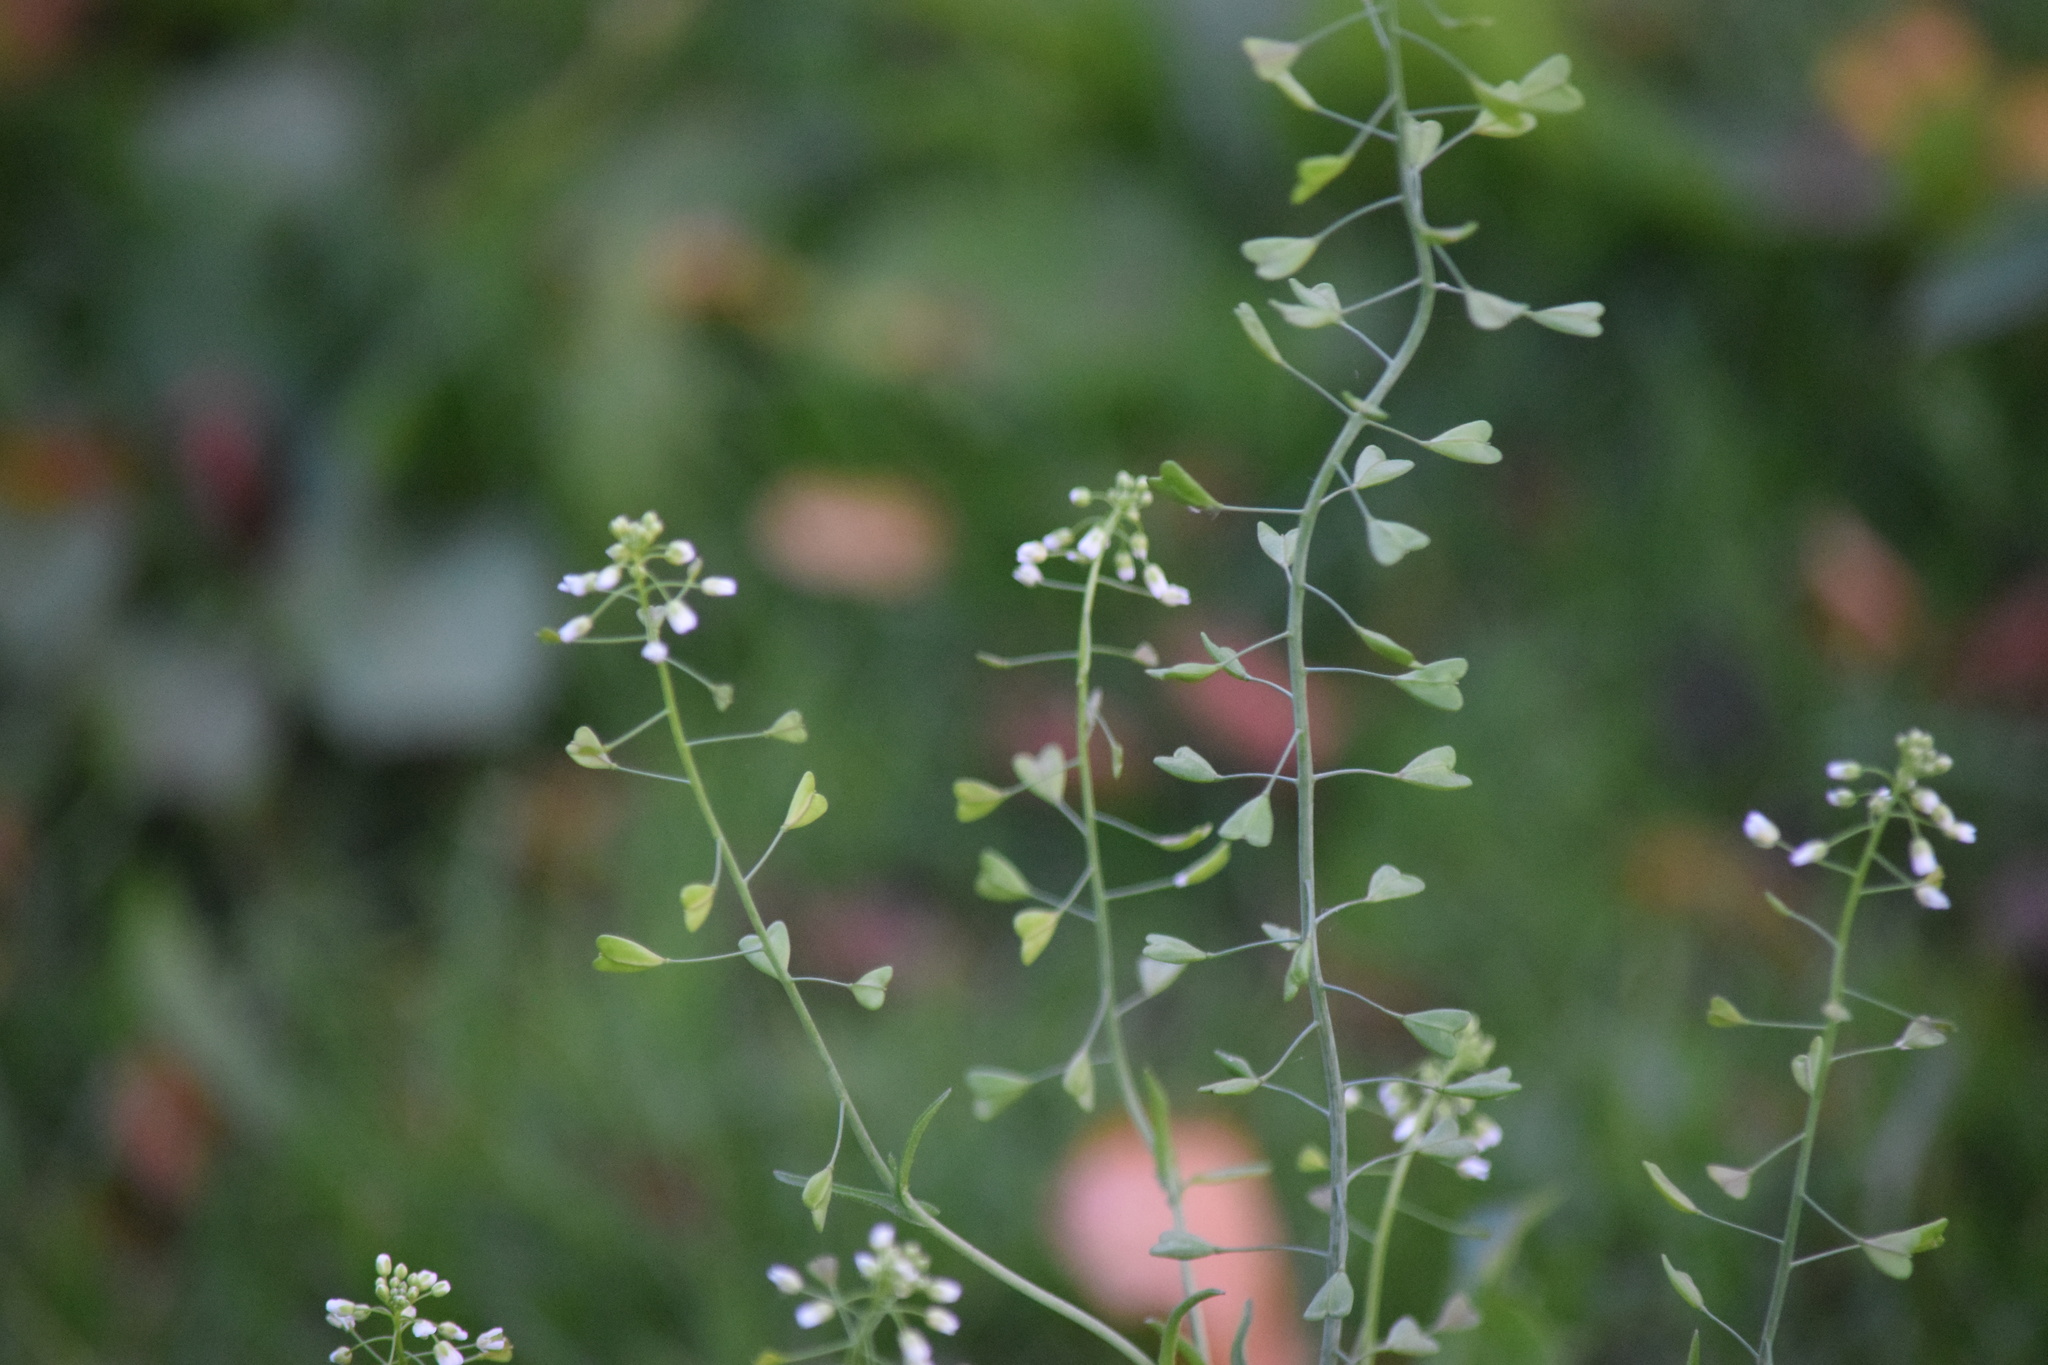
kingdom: Plantae
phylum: Tracheophyta
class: Magnoliopsida
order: Brassicales
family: Brassicaceae
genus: Capsella
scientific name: Capsella bursa-pastoris
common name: Shepherd's purse
